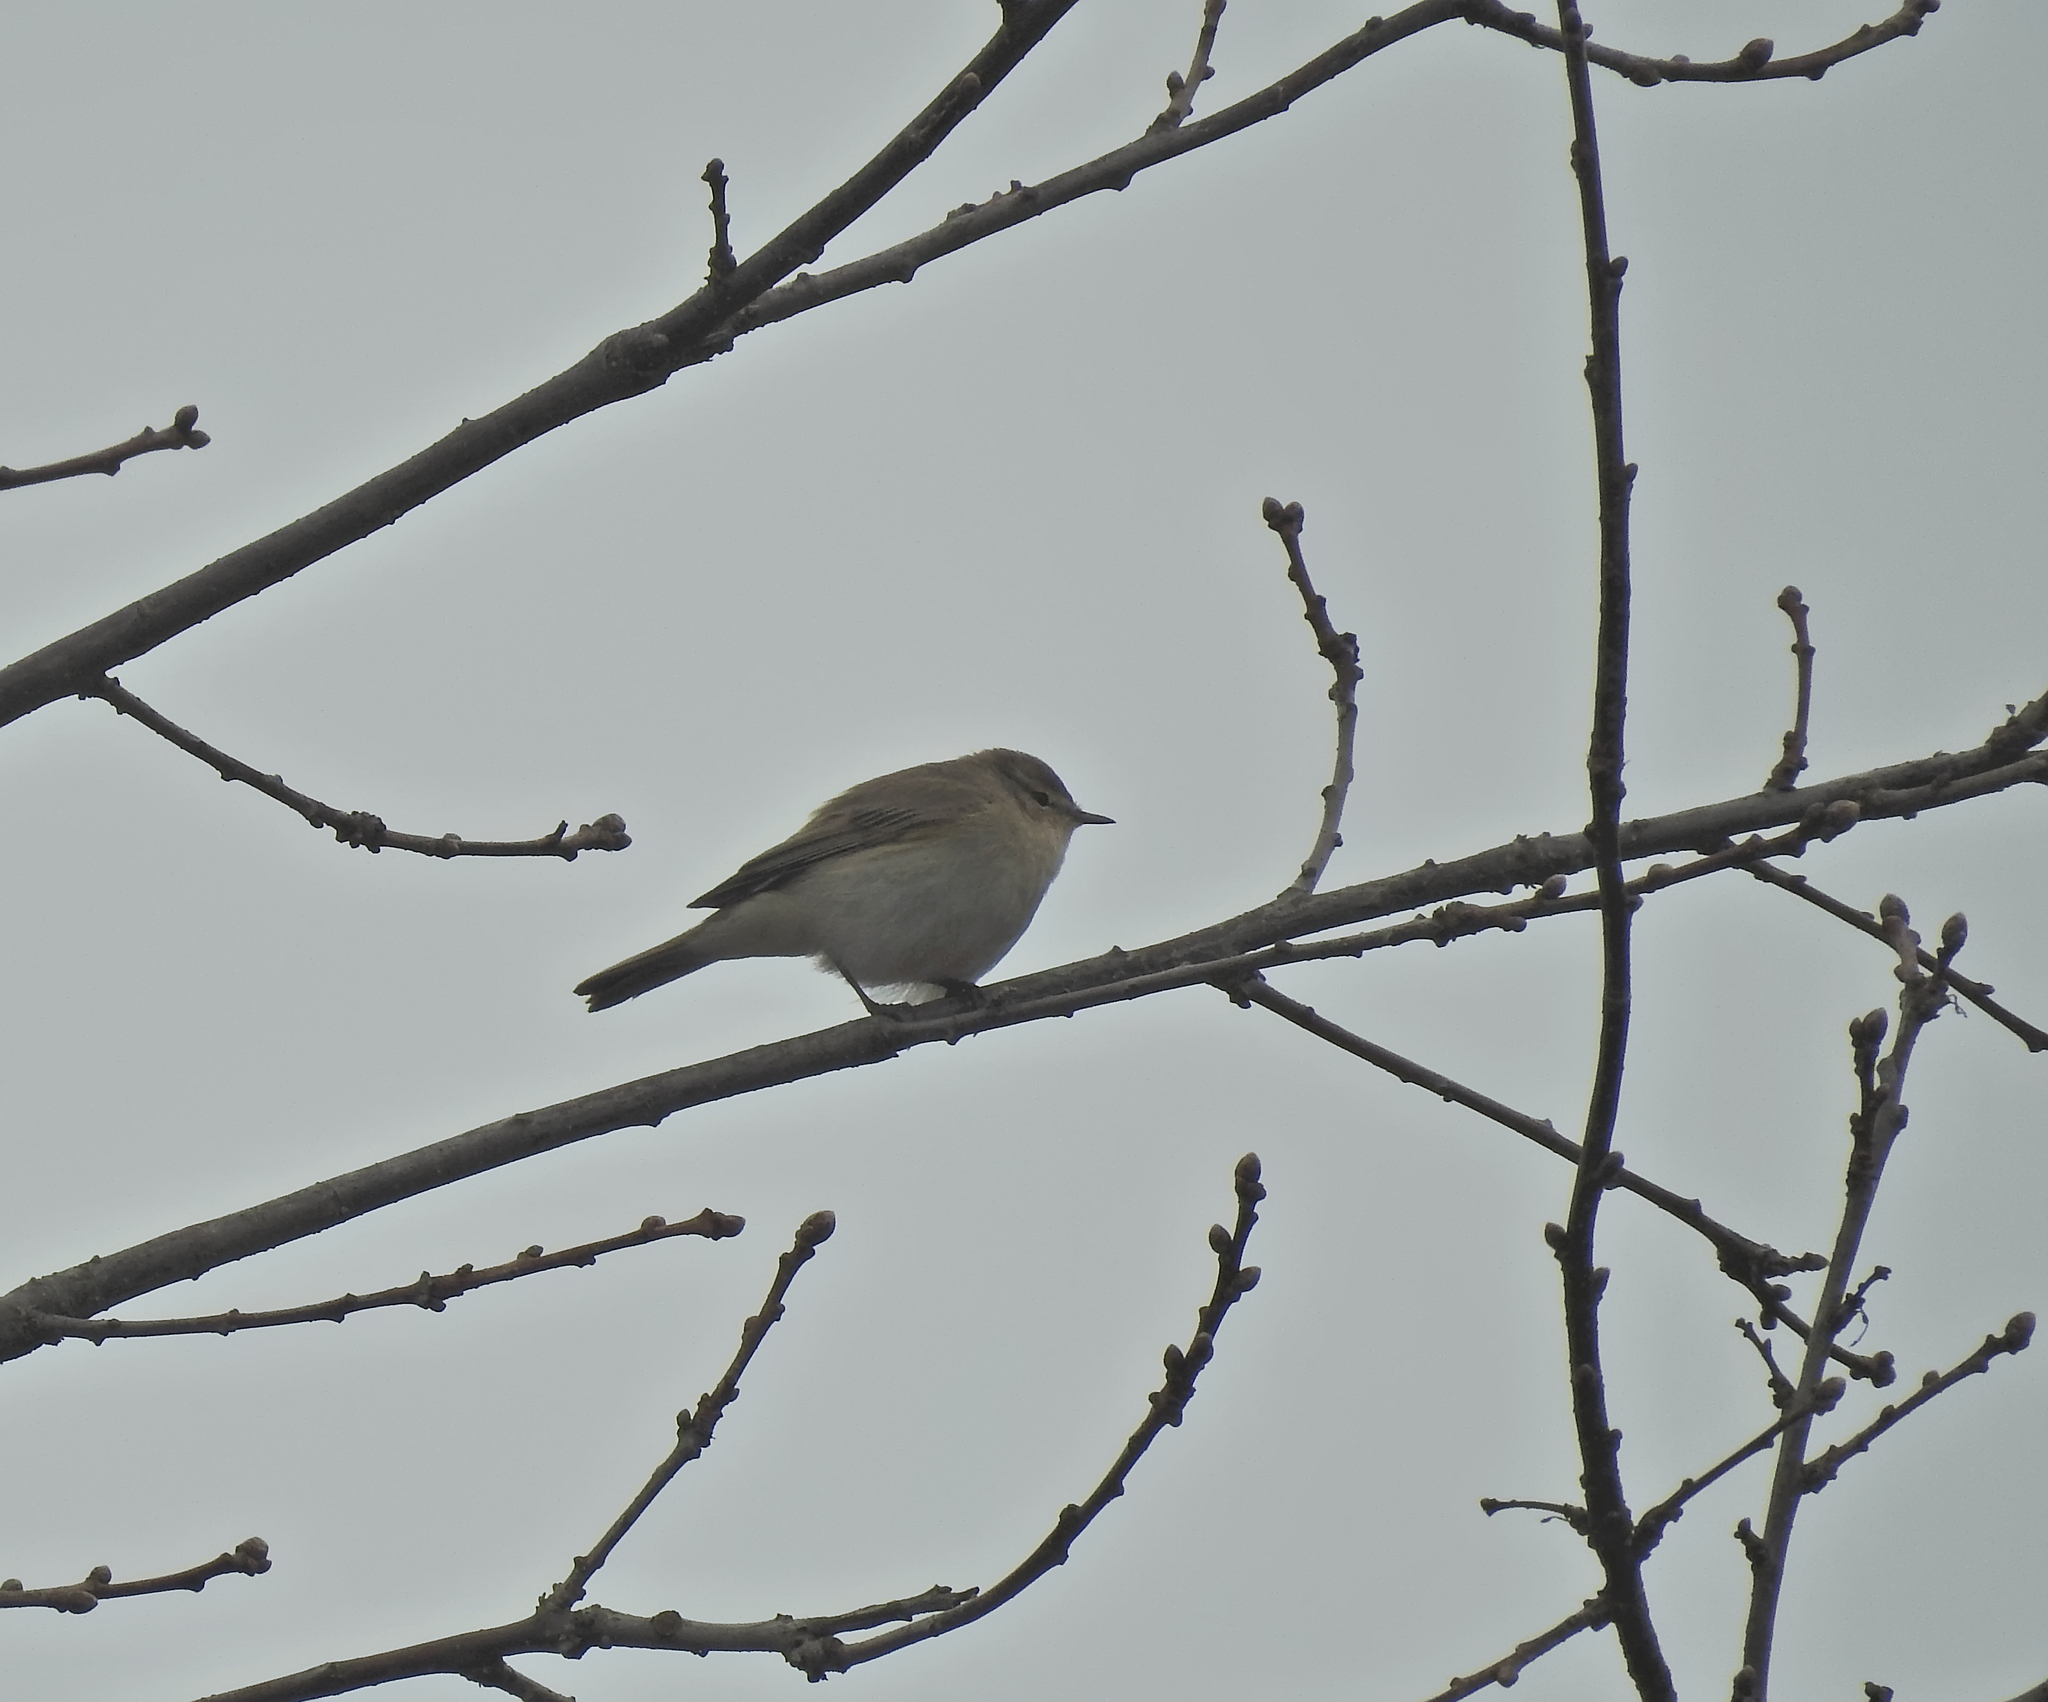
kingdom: Animalia
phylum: Chordata
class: Aves
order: Passeriformes
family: Phylloscopidae
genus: Phylloscopus
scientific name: Phylloscopus collybita
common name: Common chiffchaff
